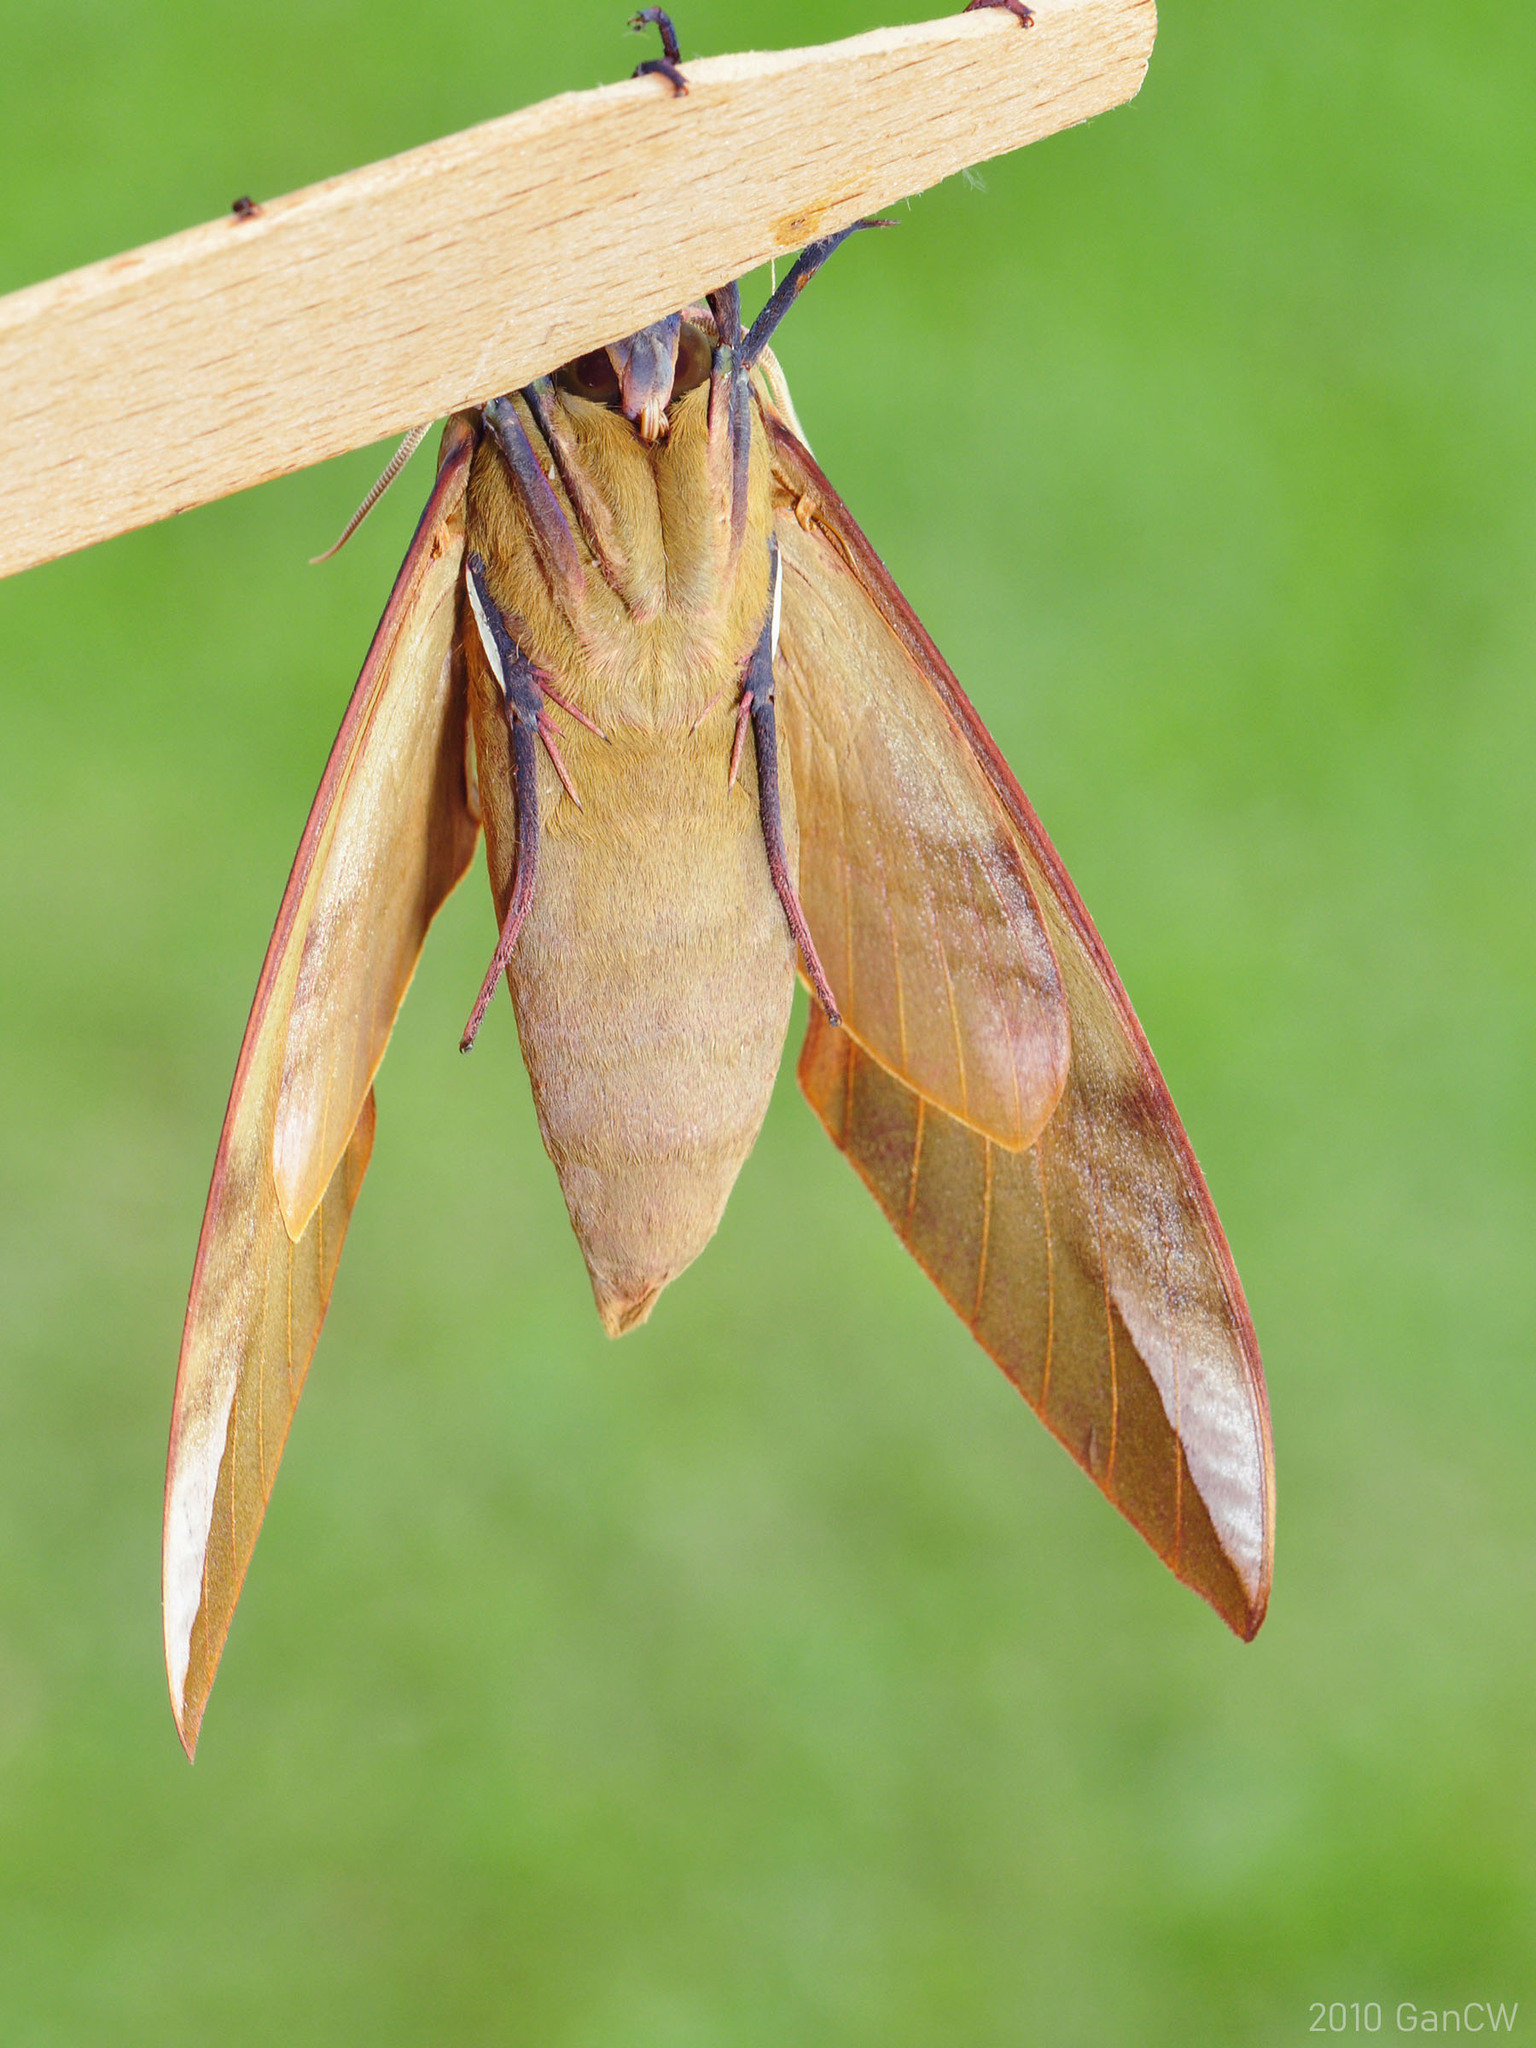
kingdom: Animalia
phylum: Arthropoda
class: Insecta
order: Lepidoptera
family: Sphingidae
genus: Clanis
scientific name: Clanis orhanti
